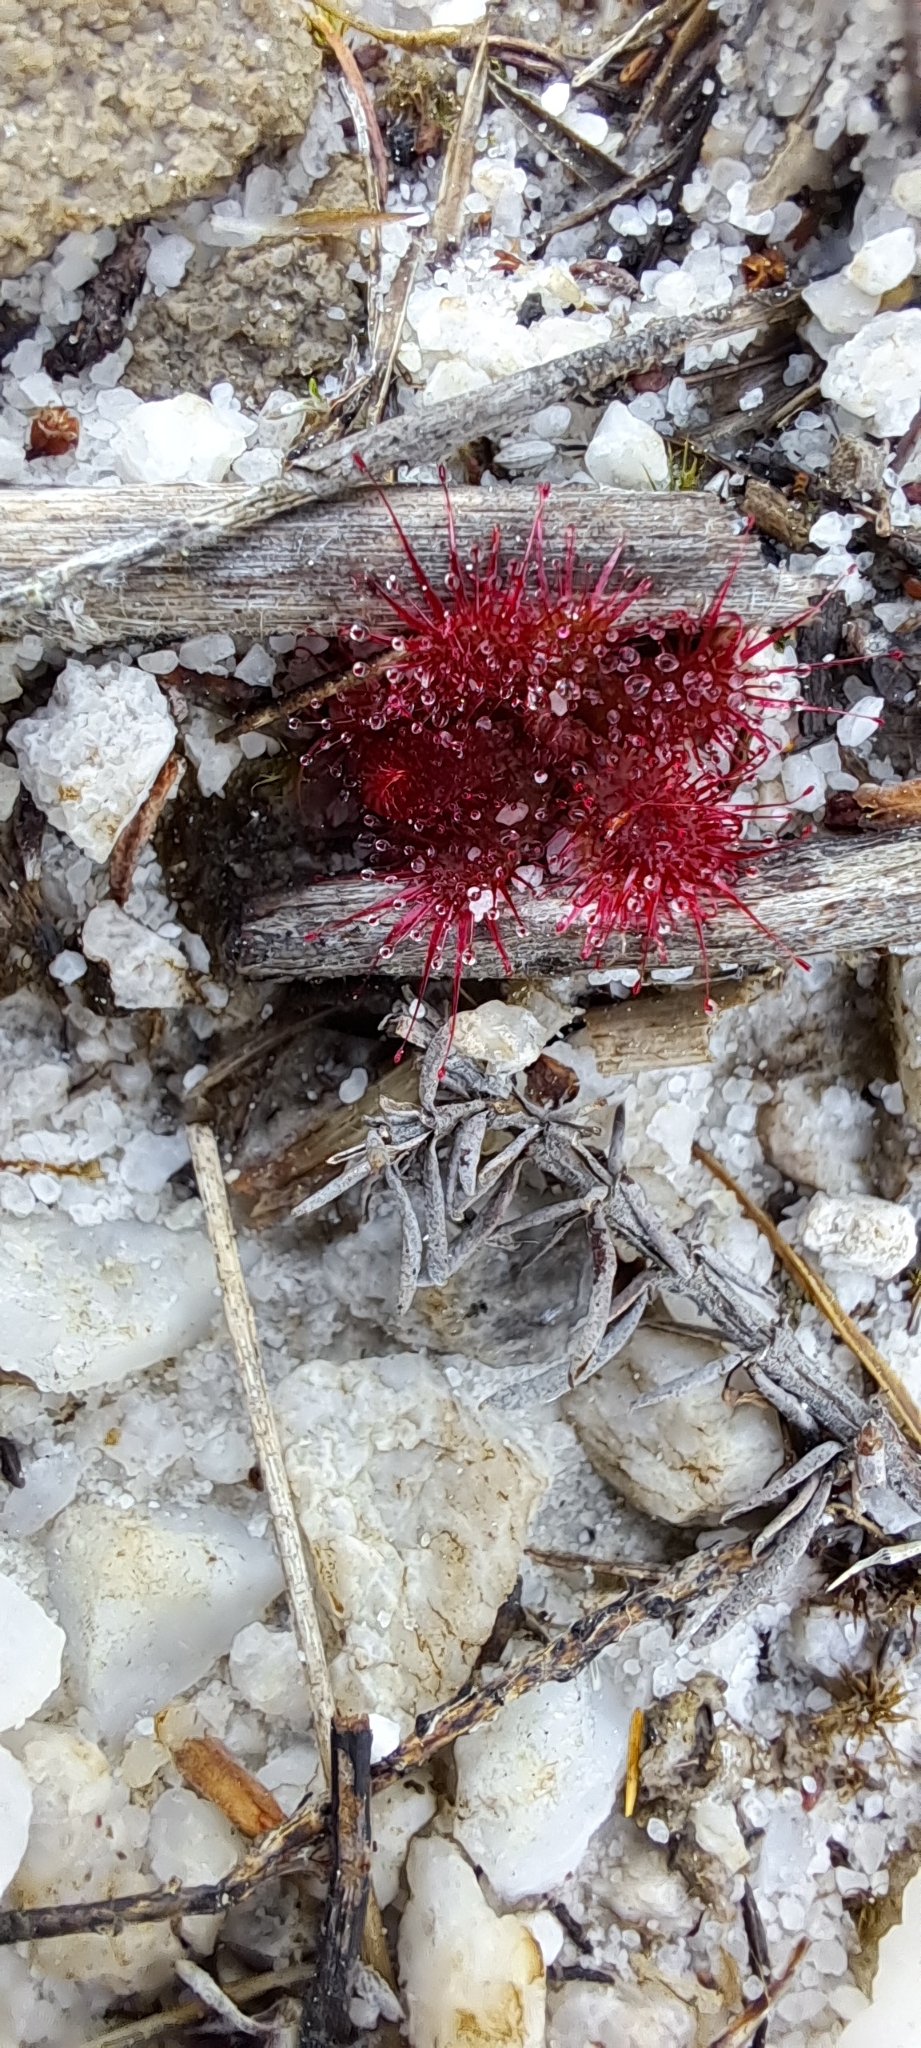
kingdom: Plantae
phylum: Tracheophyta
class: Magnoliopsida
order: Caryophyllales
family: Droseraceae
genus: Drosera
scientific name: Drosera trinervia
